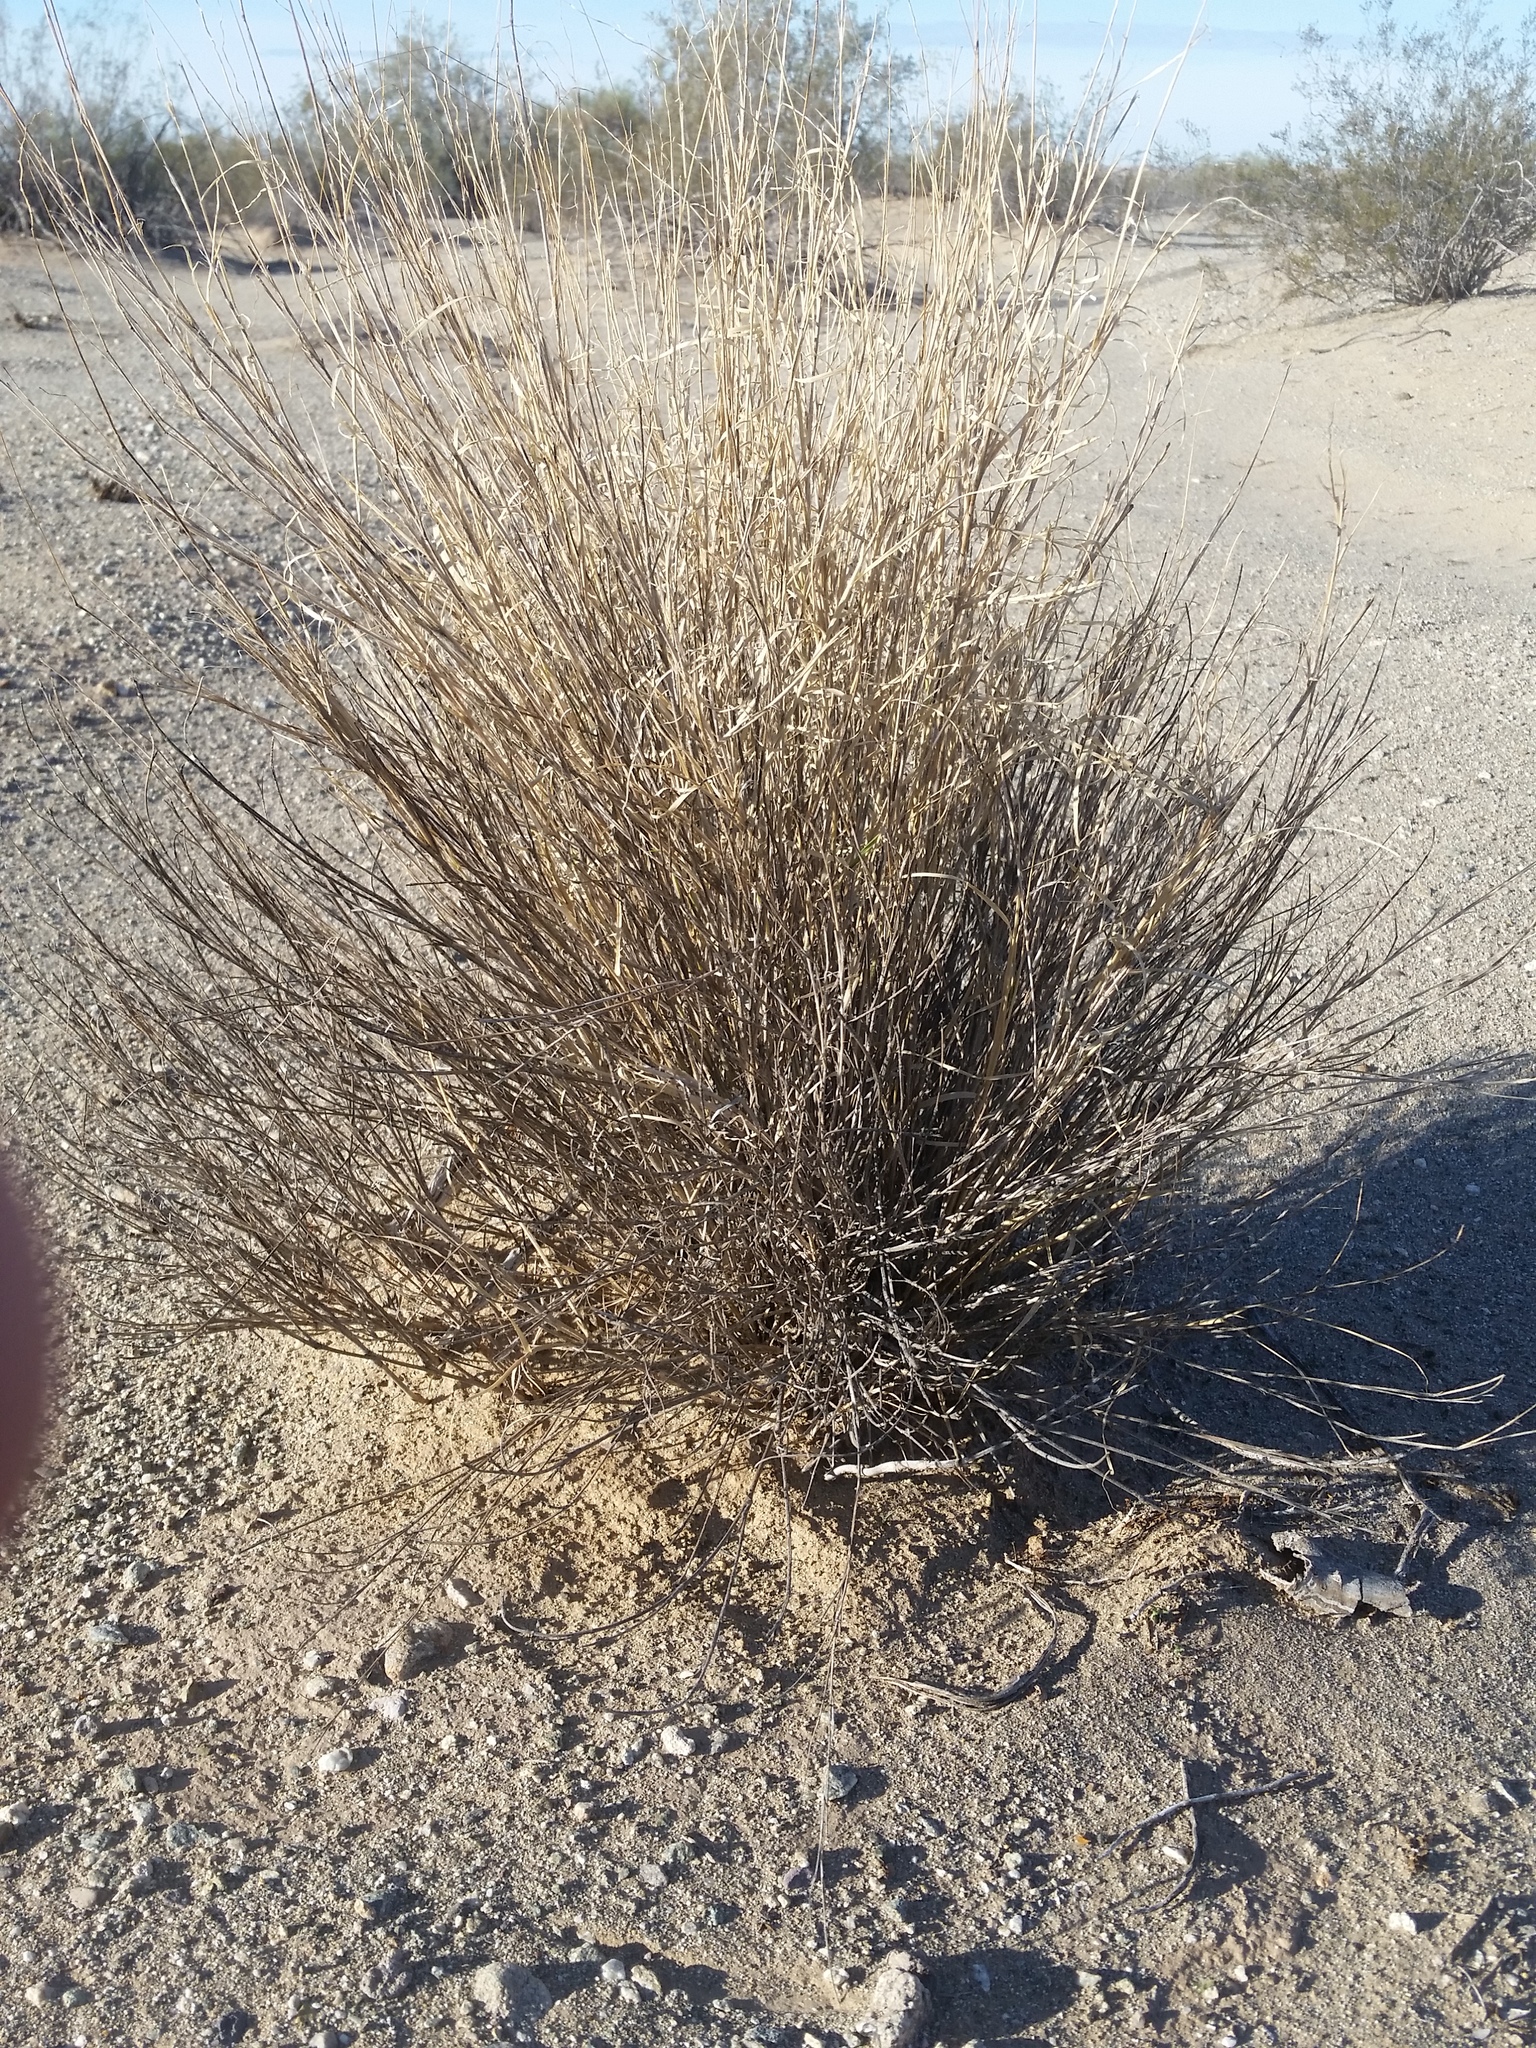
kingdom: Plantae
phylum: Tracheophyta
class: Liliopsida
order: Poales
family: Poaceae
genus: Hilaria
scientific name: Hilaria rigida
